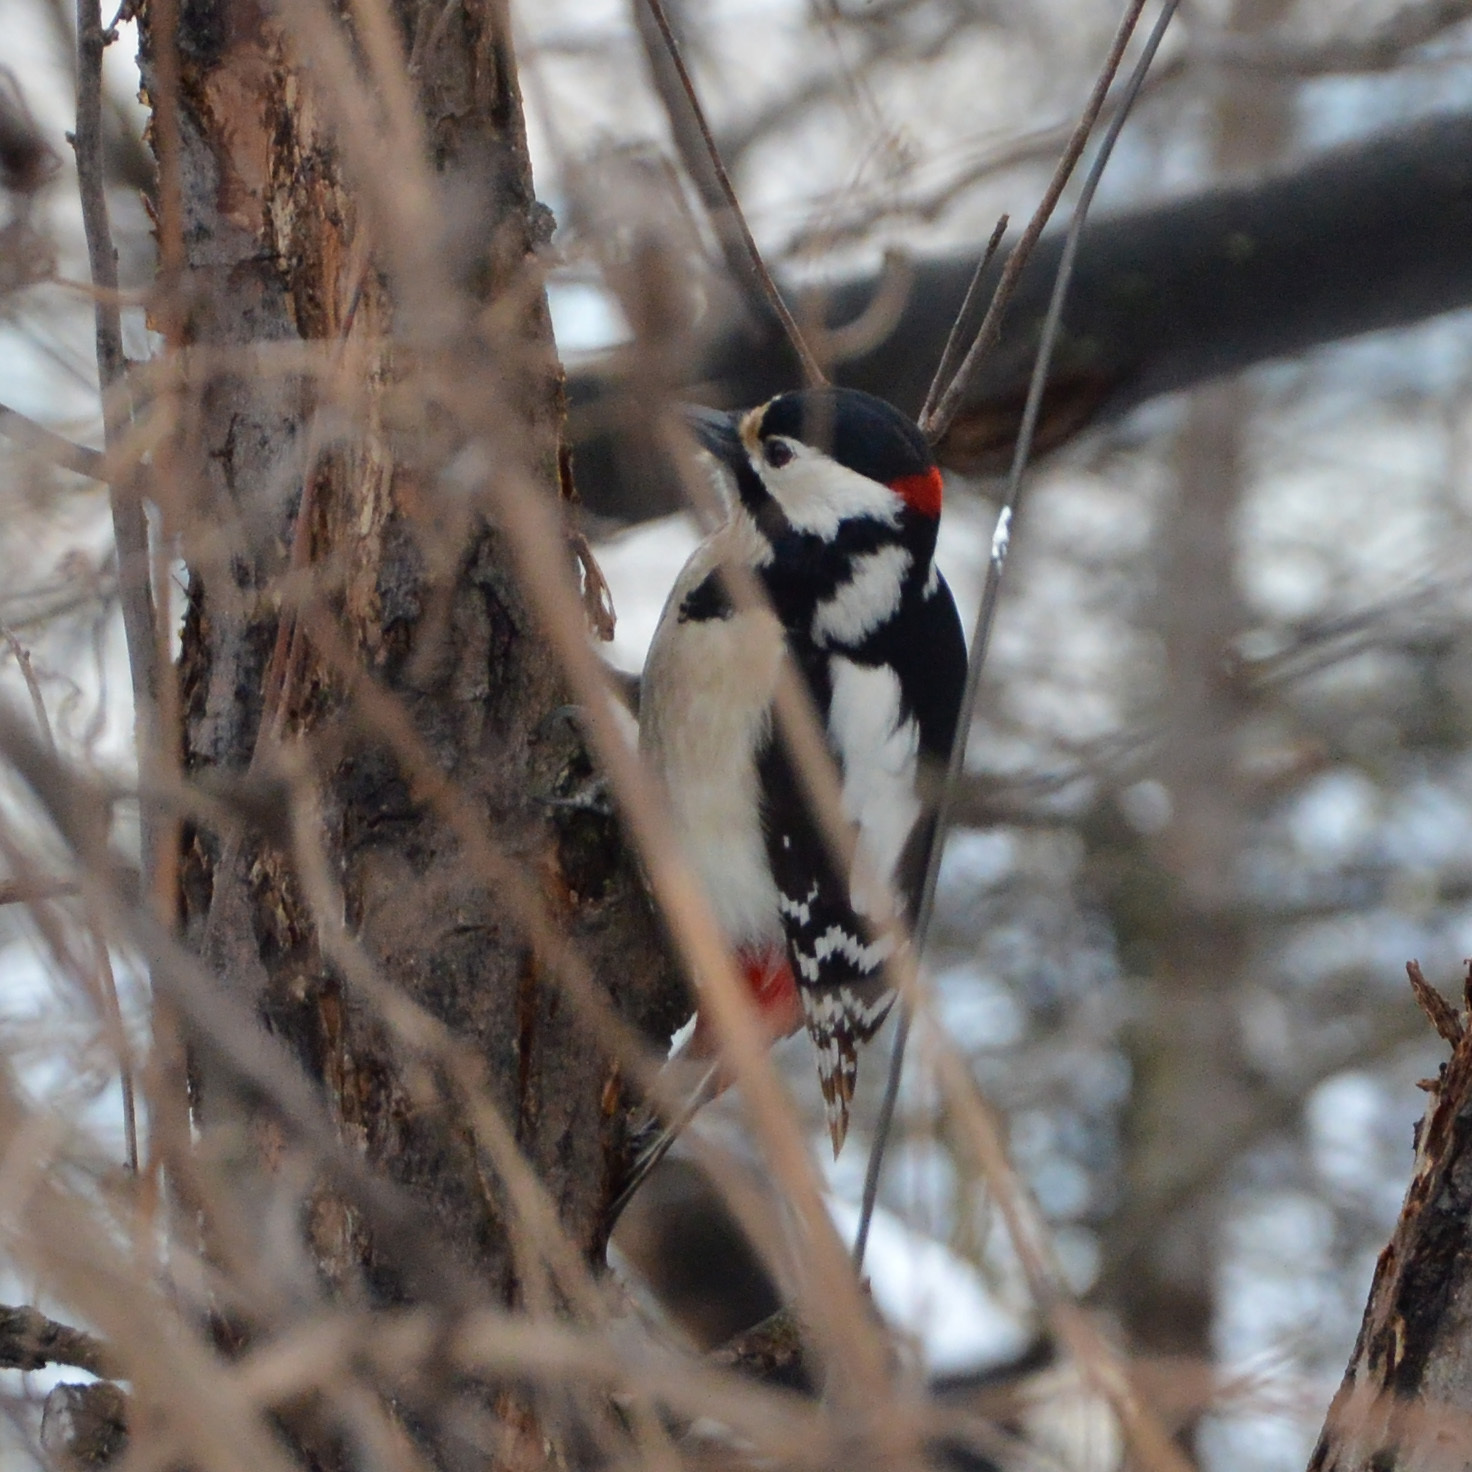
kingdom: Animalia
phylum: Chordata
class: Aves
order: Piciformes
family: Picidae
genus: Dendrocopos
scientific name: Dendrocopos major
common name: Great spotted woodpecker
